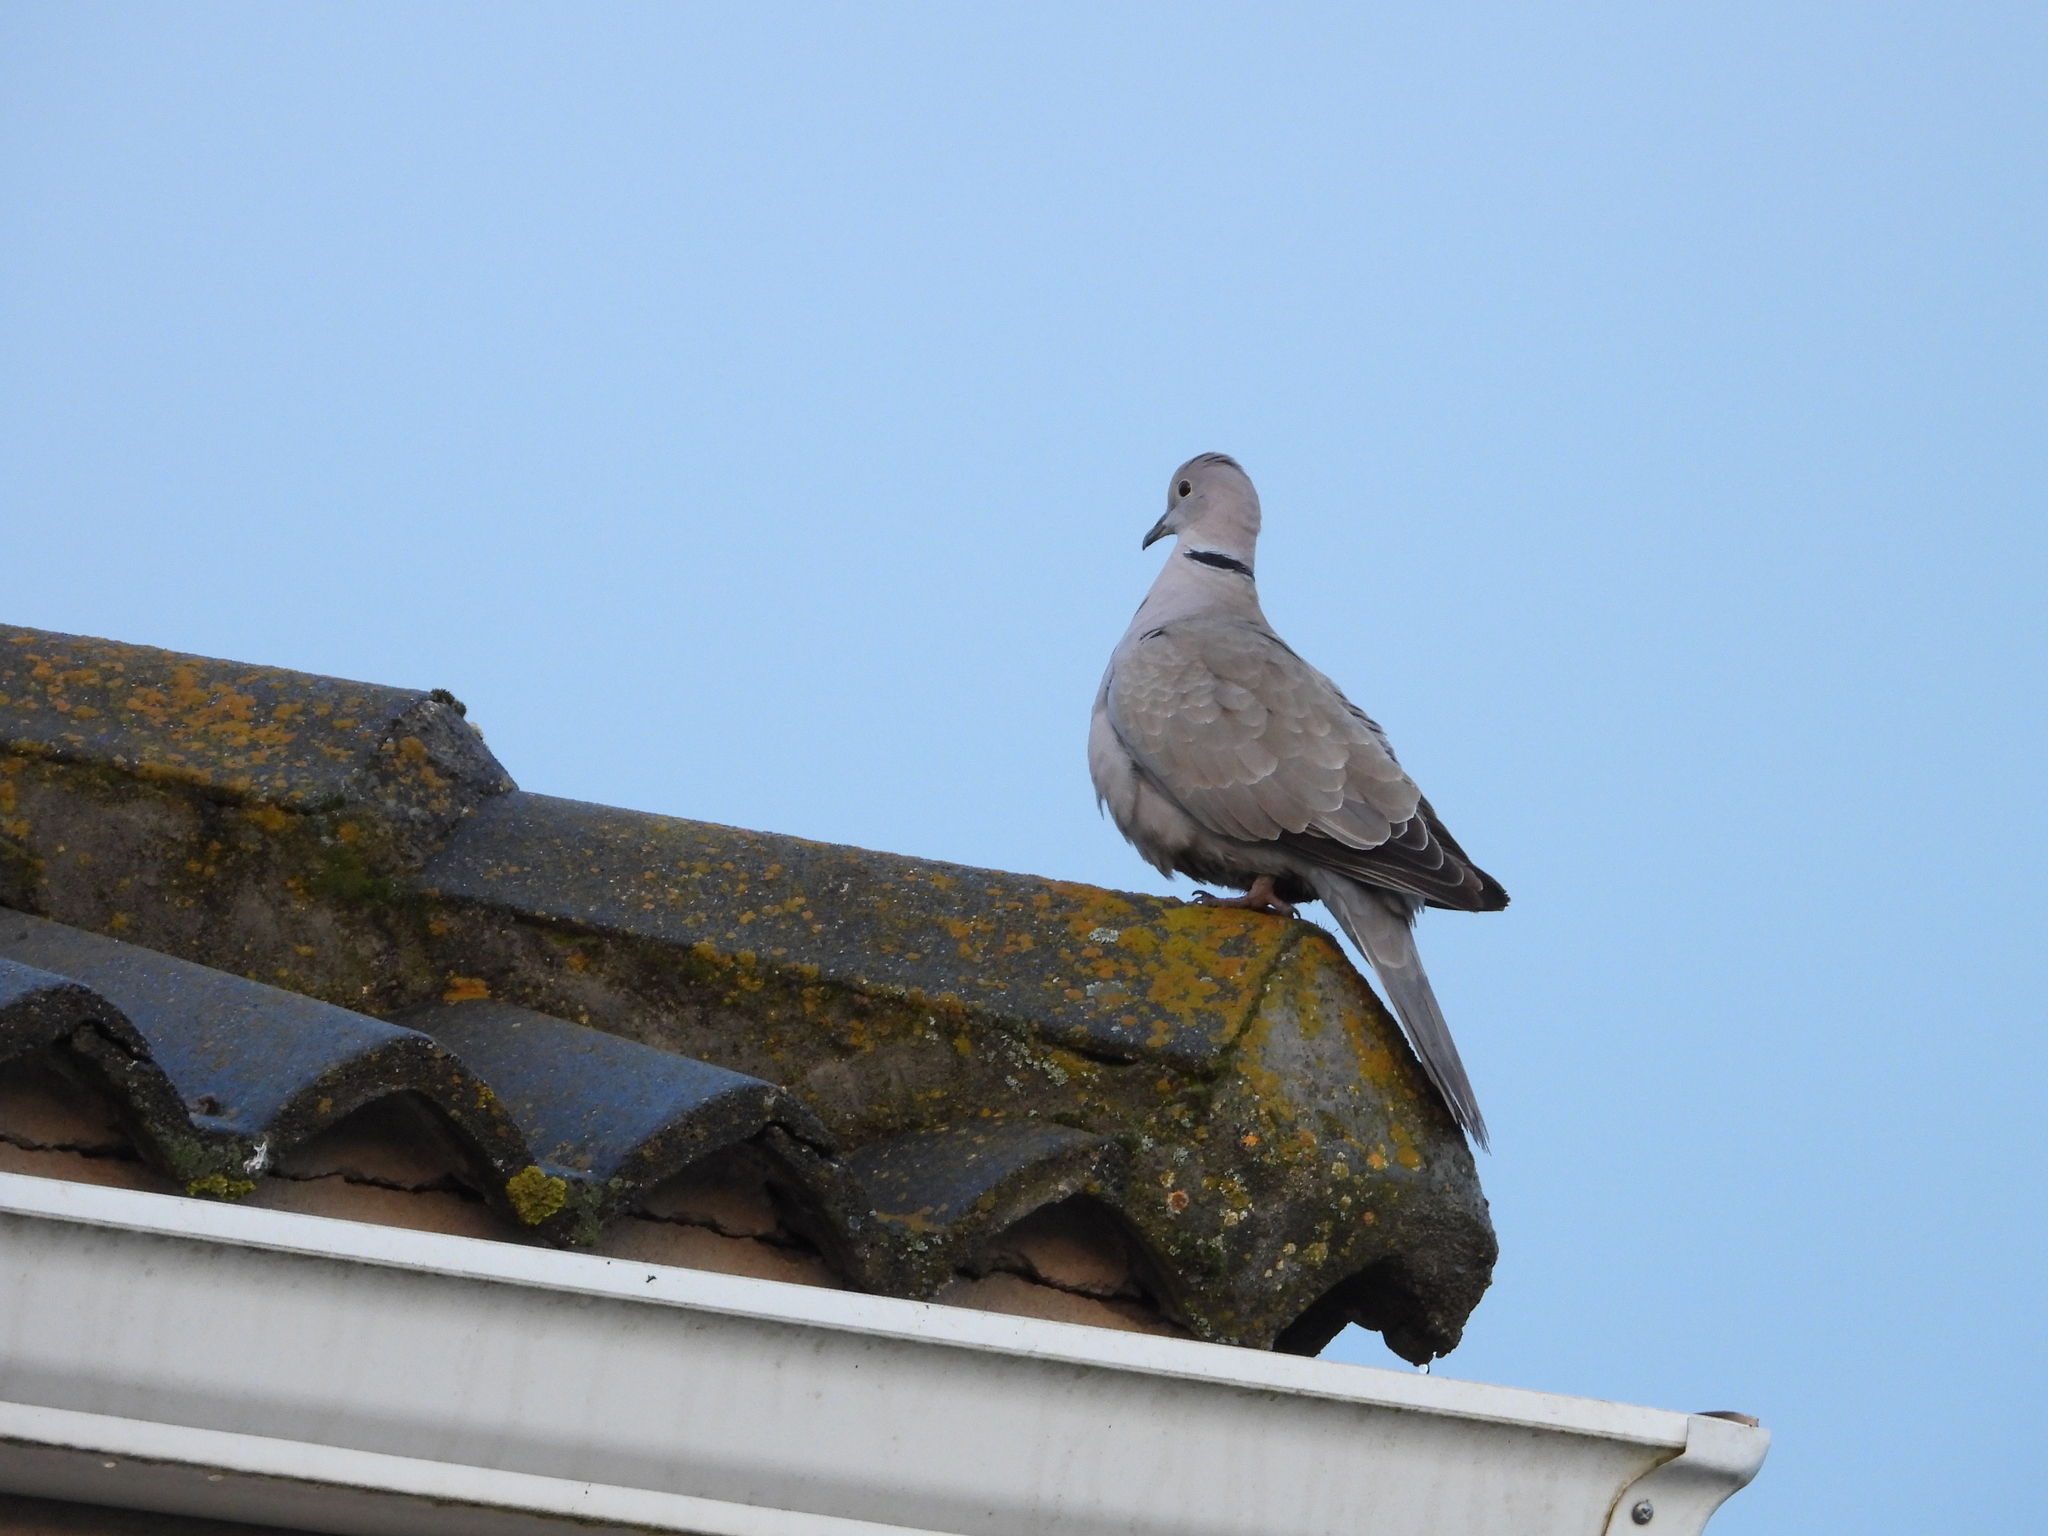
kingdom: Animalia
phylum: Chordata
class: Aves
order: Columbiformes
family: Columbidae
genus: Streptopelia
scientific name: Streptopelia decaocto
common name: Eurasian collared dove
